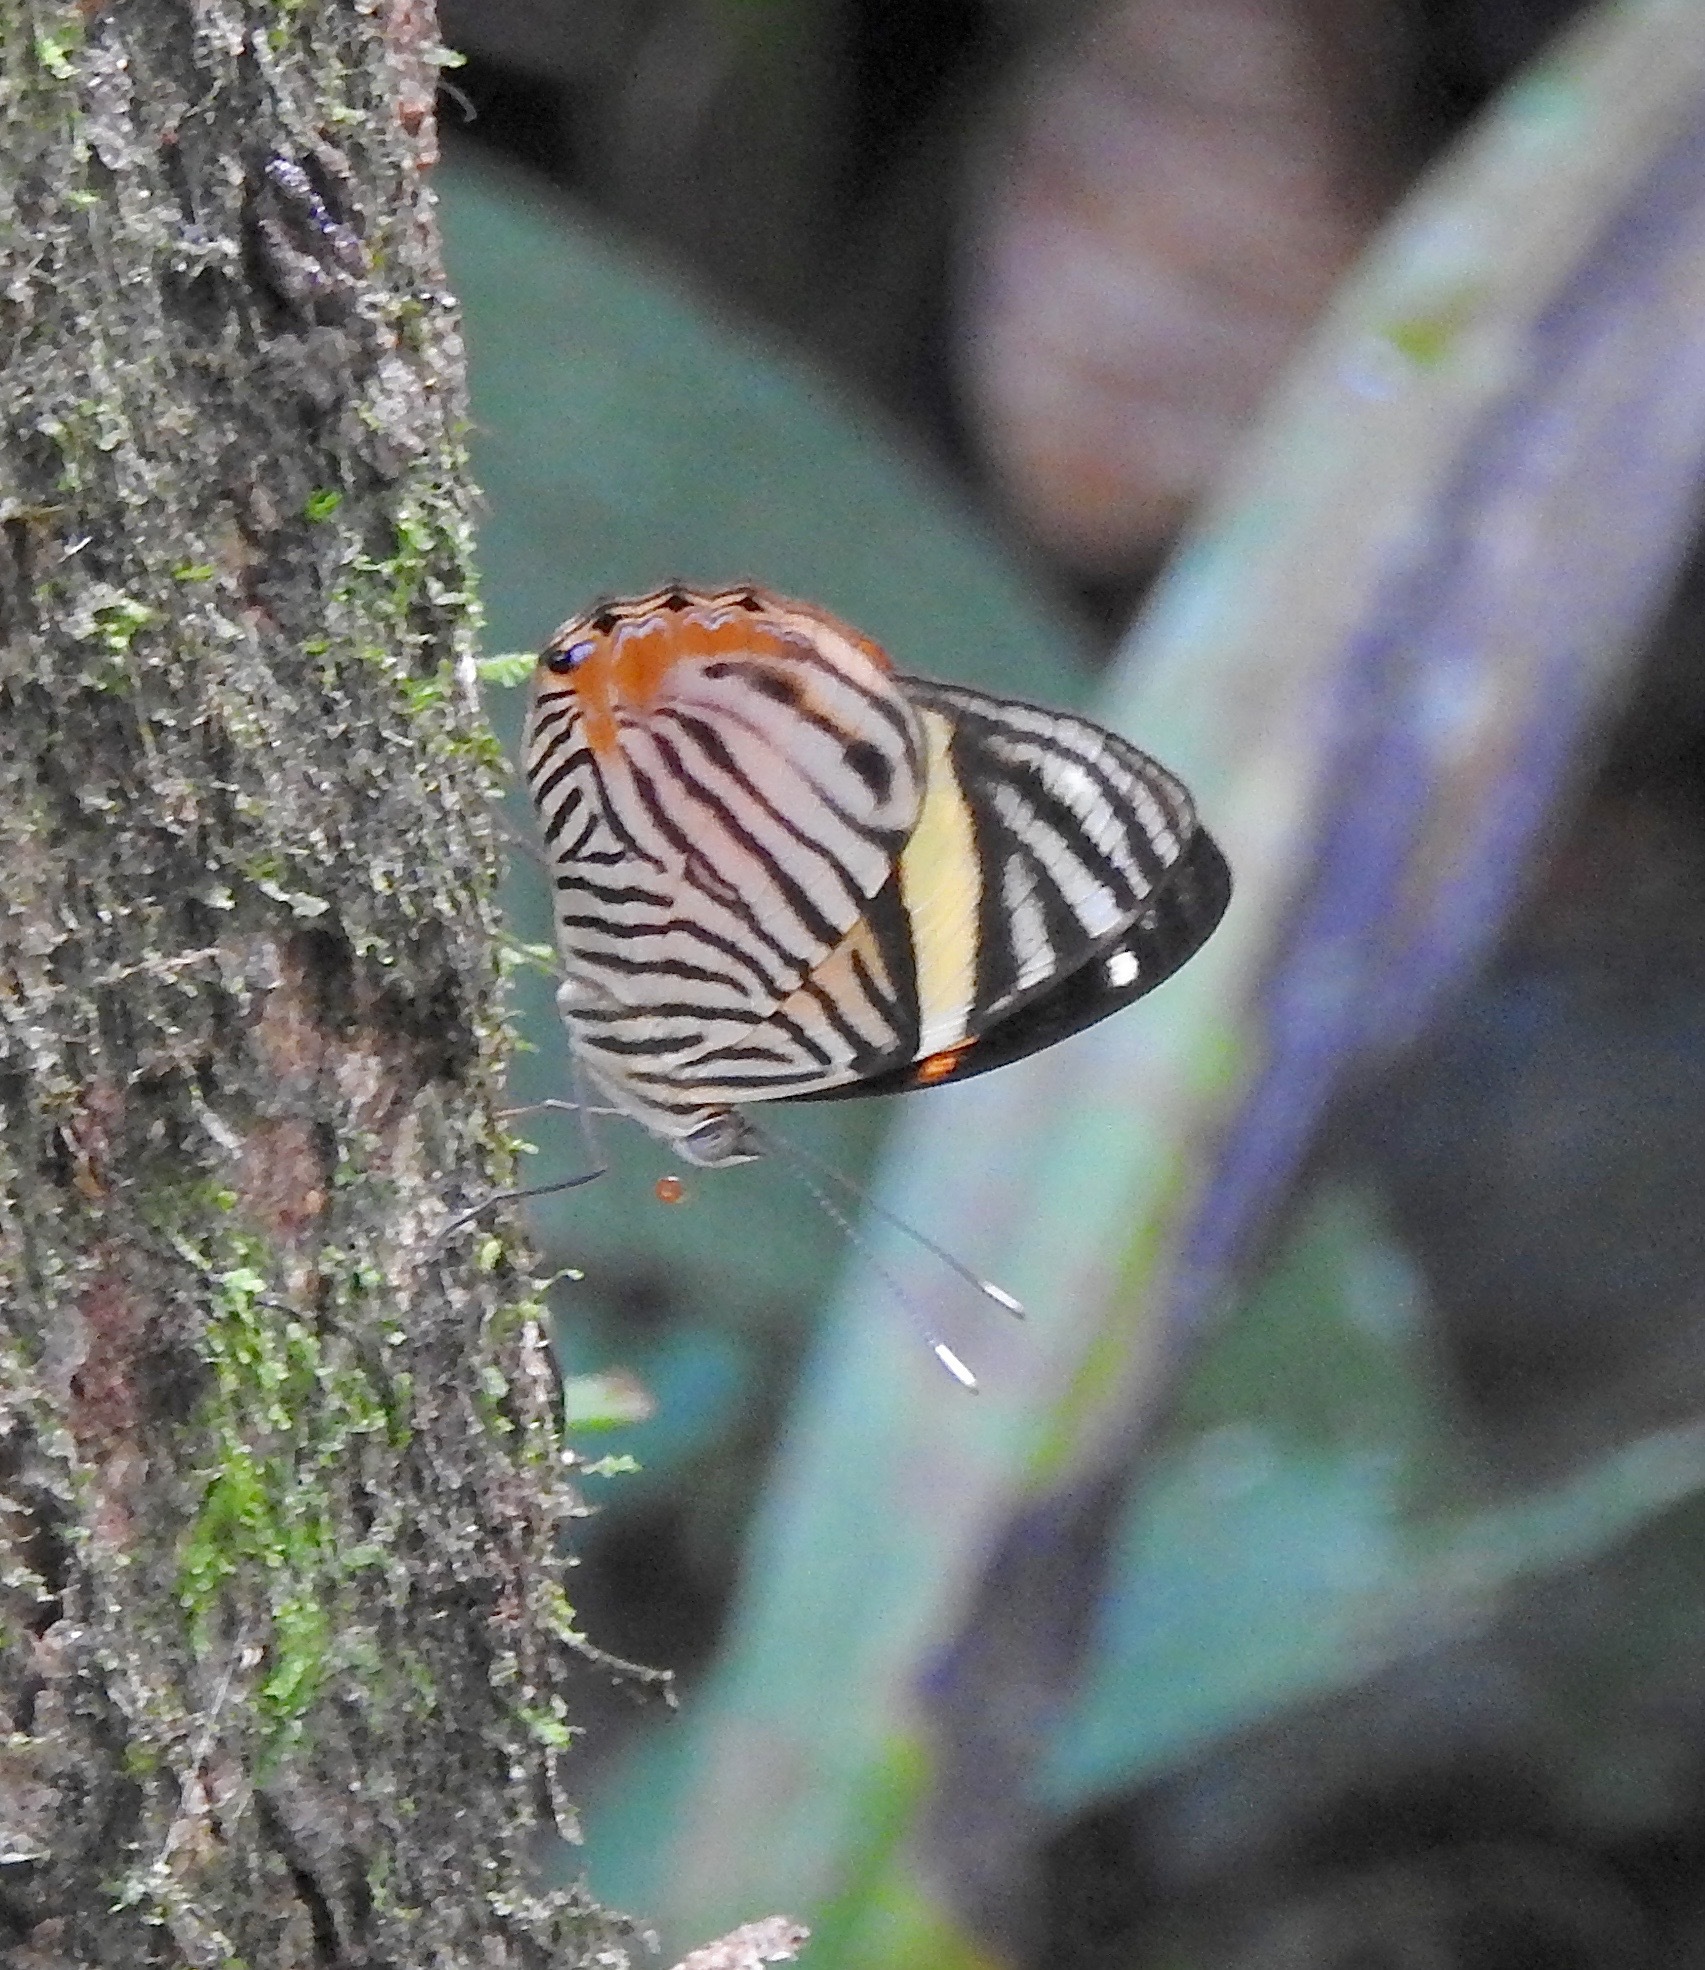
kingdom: Animalia
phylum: Arthropoda
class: Insecta
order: Lepidoptera
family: Nymphalidae
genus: Callizona
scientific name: Callizona acesta
